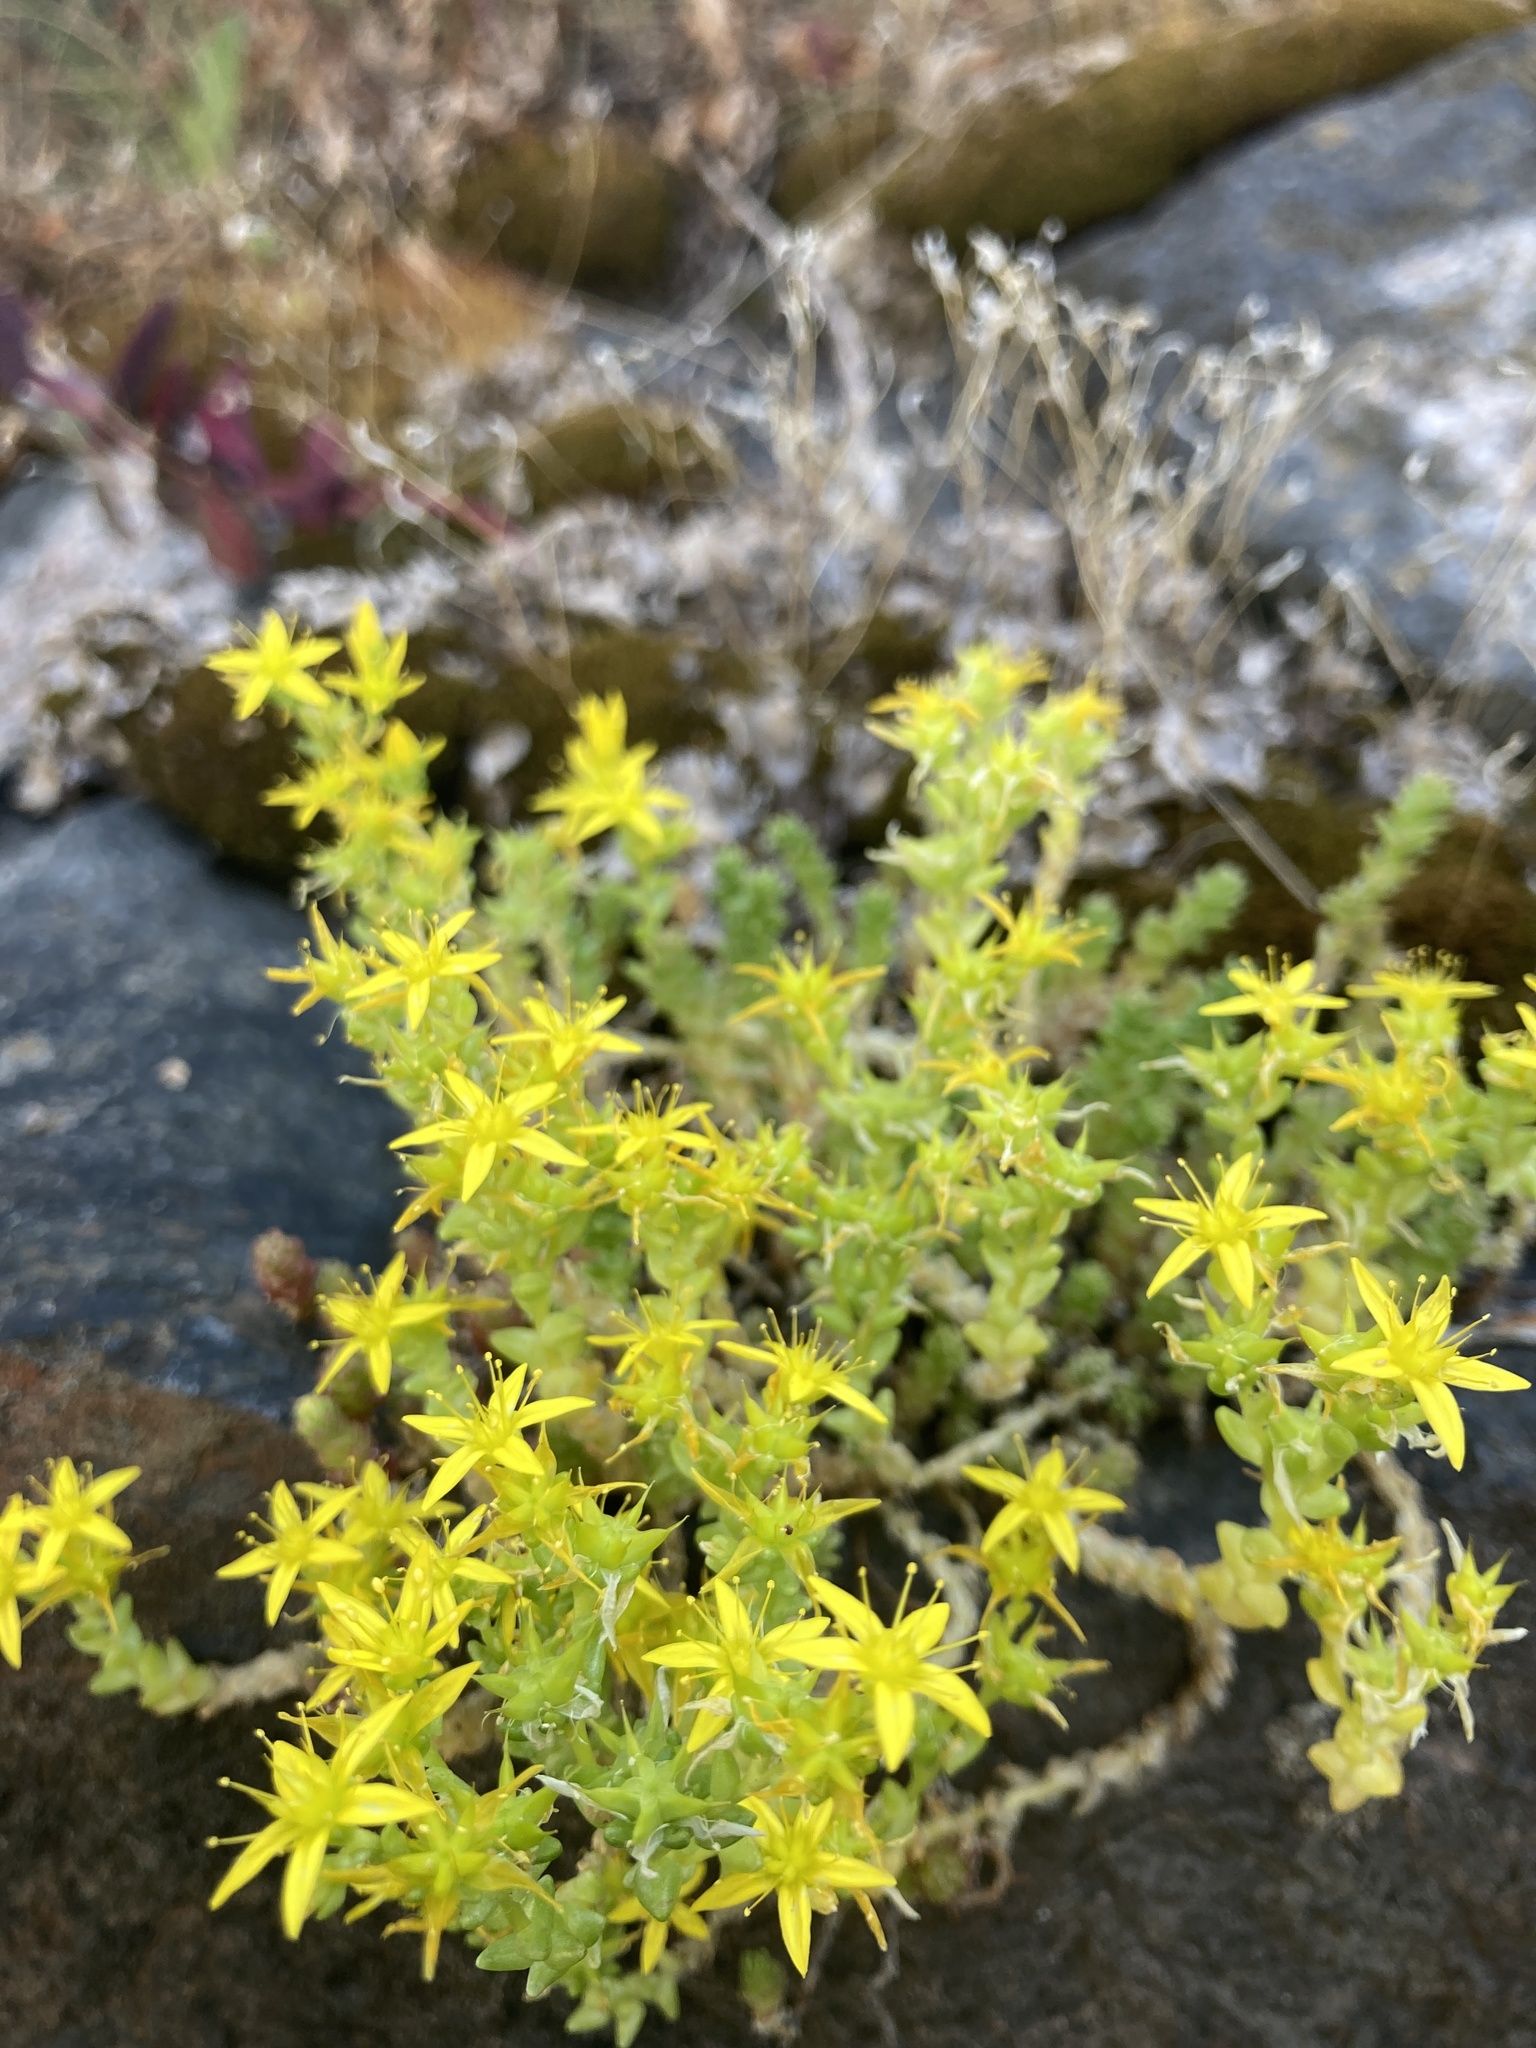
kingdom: Plantae
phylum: Tracheophyta
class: Magnoliopsida
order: Saxifragales
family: Crassulaceae
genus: Sedum
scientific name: Sedum acre
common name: Biting stonecrop
